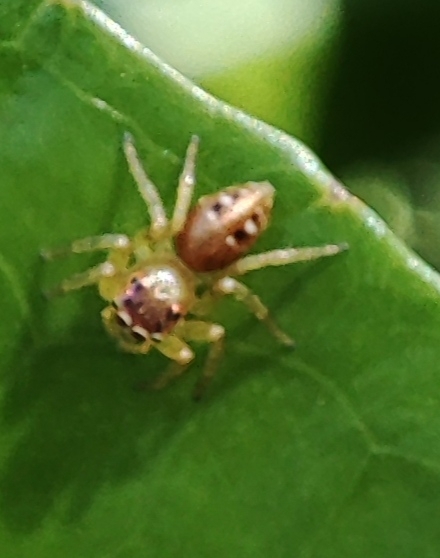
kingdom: Animalia
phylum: Arthropoda
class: Arachnida
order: Araneae
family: Salticidae
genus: Cytaea
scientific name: Cytaea dispalans
